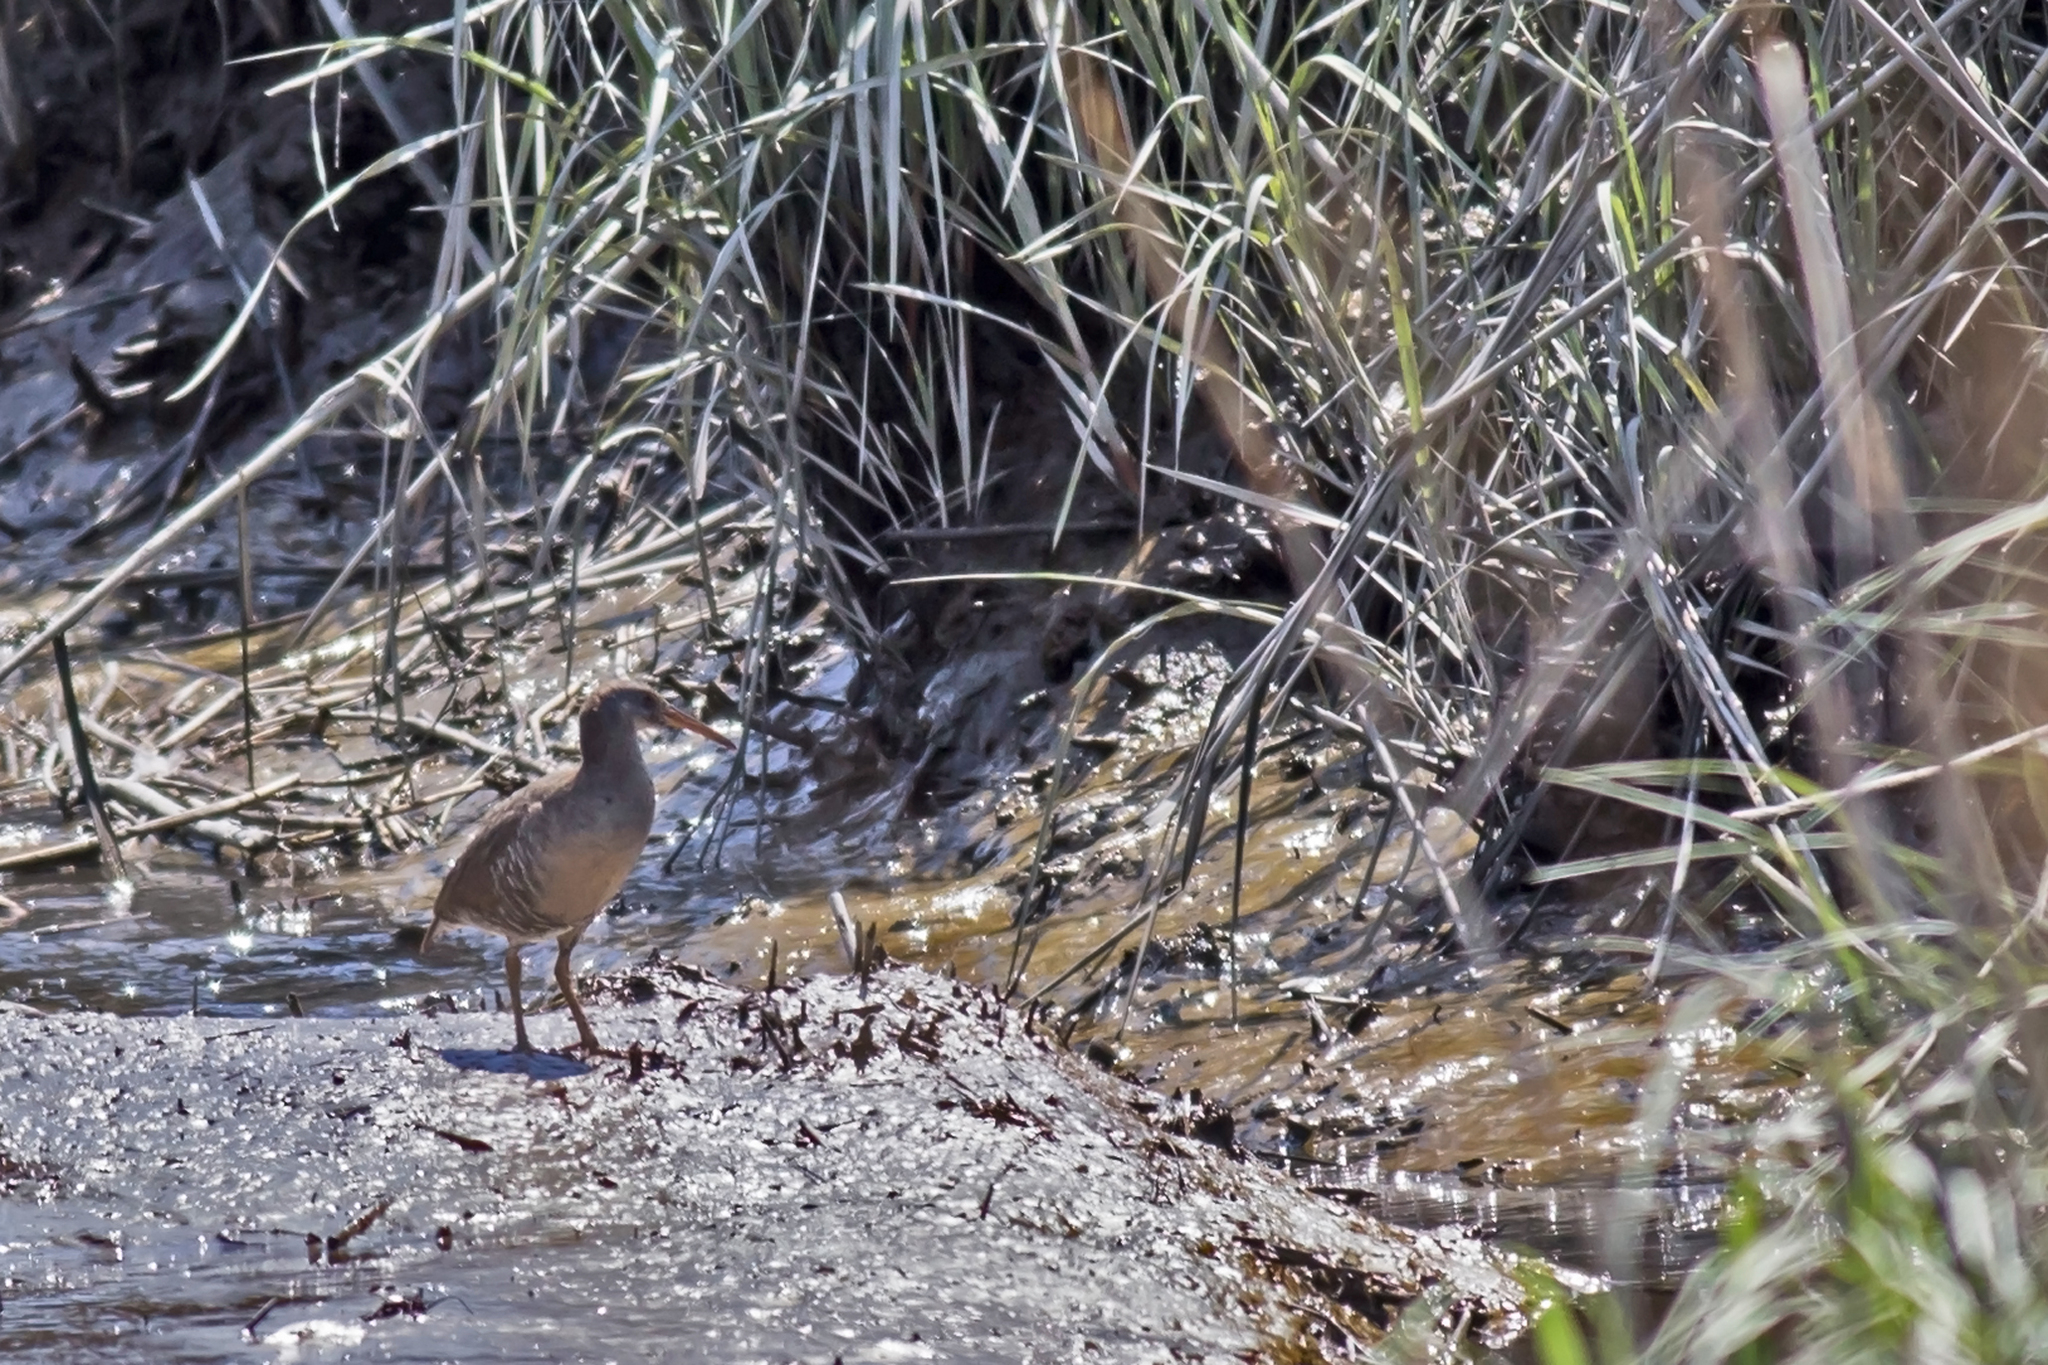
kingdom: Animalia
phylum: Chordata
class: Aves
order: Gruiformes
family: Rallidae
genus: Rallus
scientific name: Rallus crepitans
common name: Clapper rail
